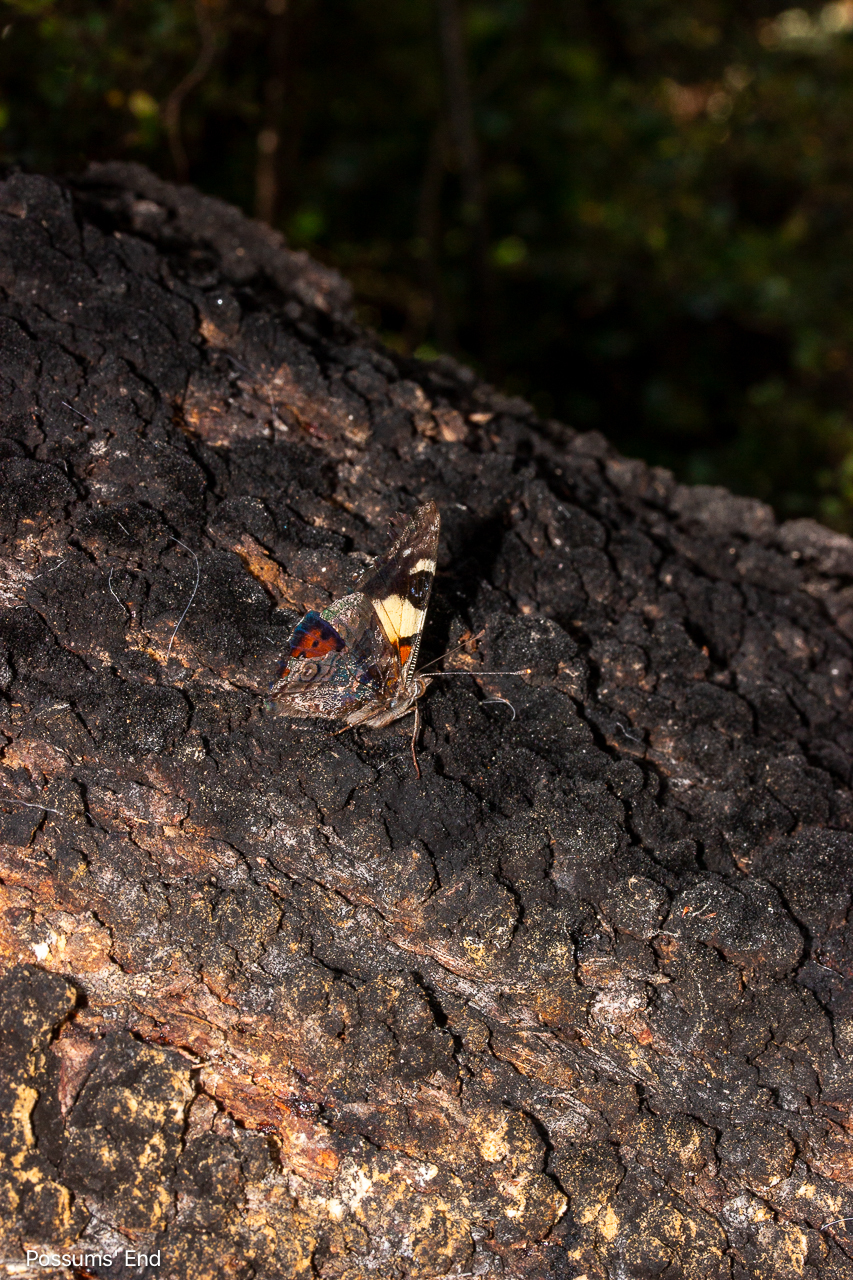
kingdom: Animalia
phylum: Arthropoda
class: Insecta
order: Lepidoptera
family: Nymphalidae
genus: Vanessa
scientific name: Vanessa itea
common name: Yellow admiral
